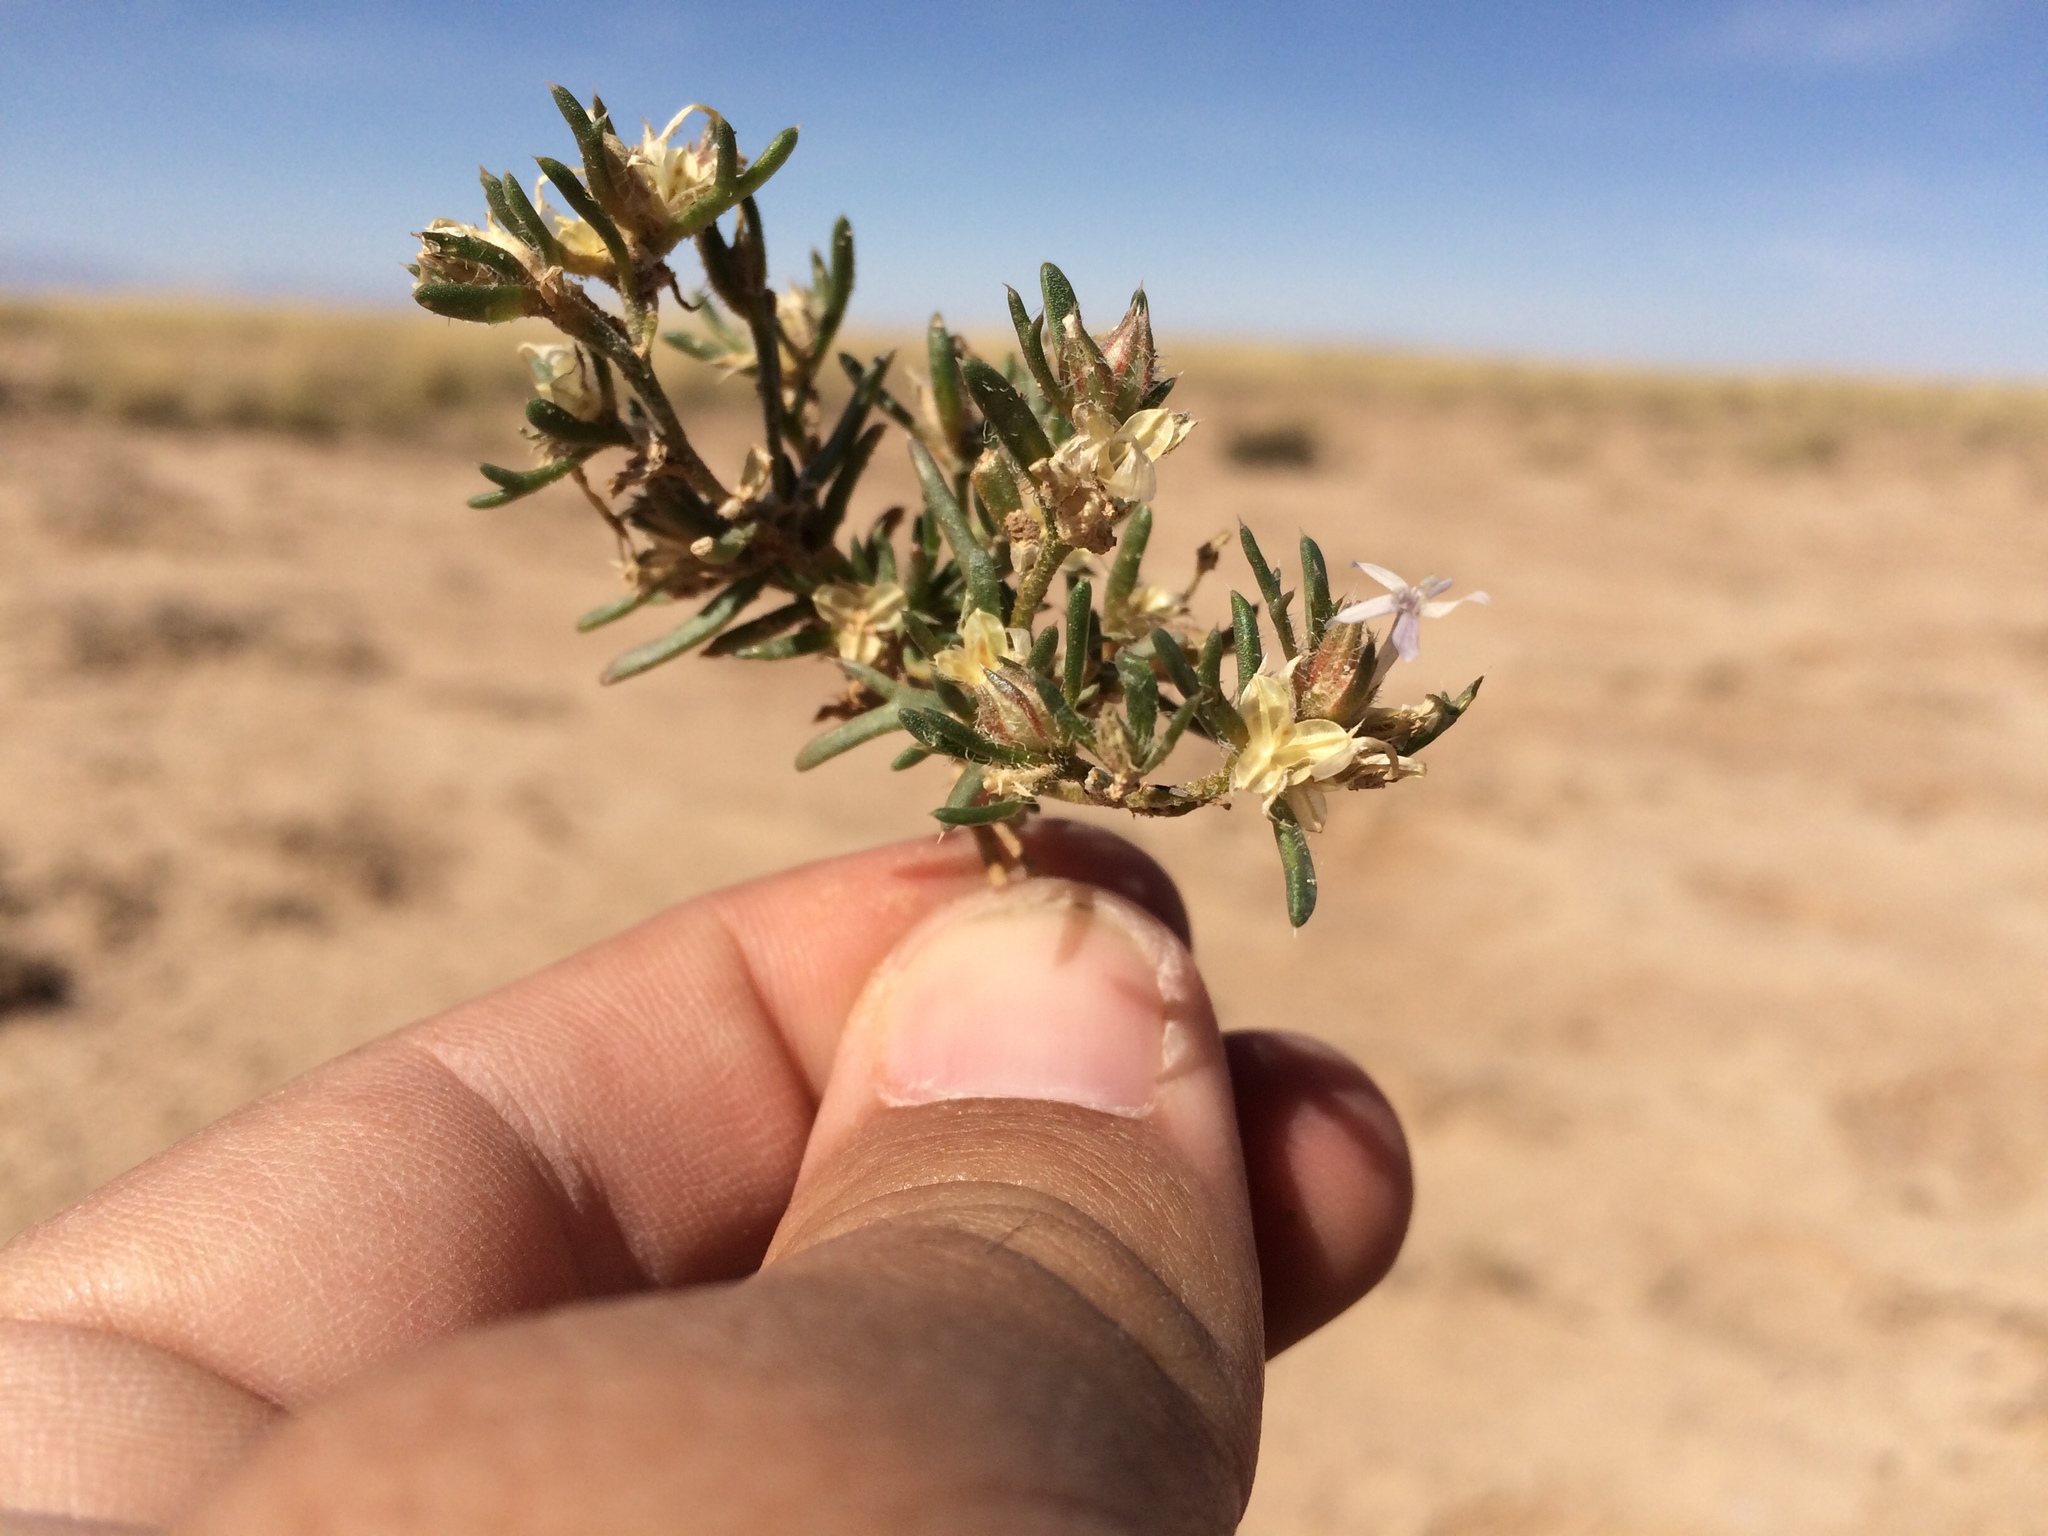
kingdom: Plantae
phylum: Tracheophyta
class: Magnoliopsida
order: Ericales
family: Polemoniaceae
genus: Ipomopsis
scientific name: Ipomopsis pumila
